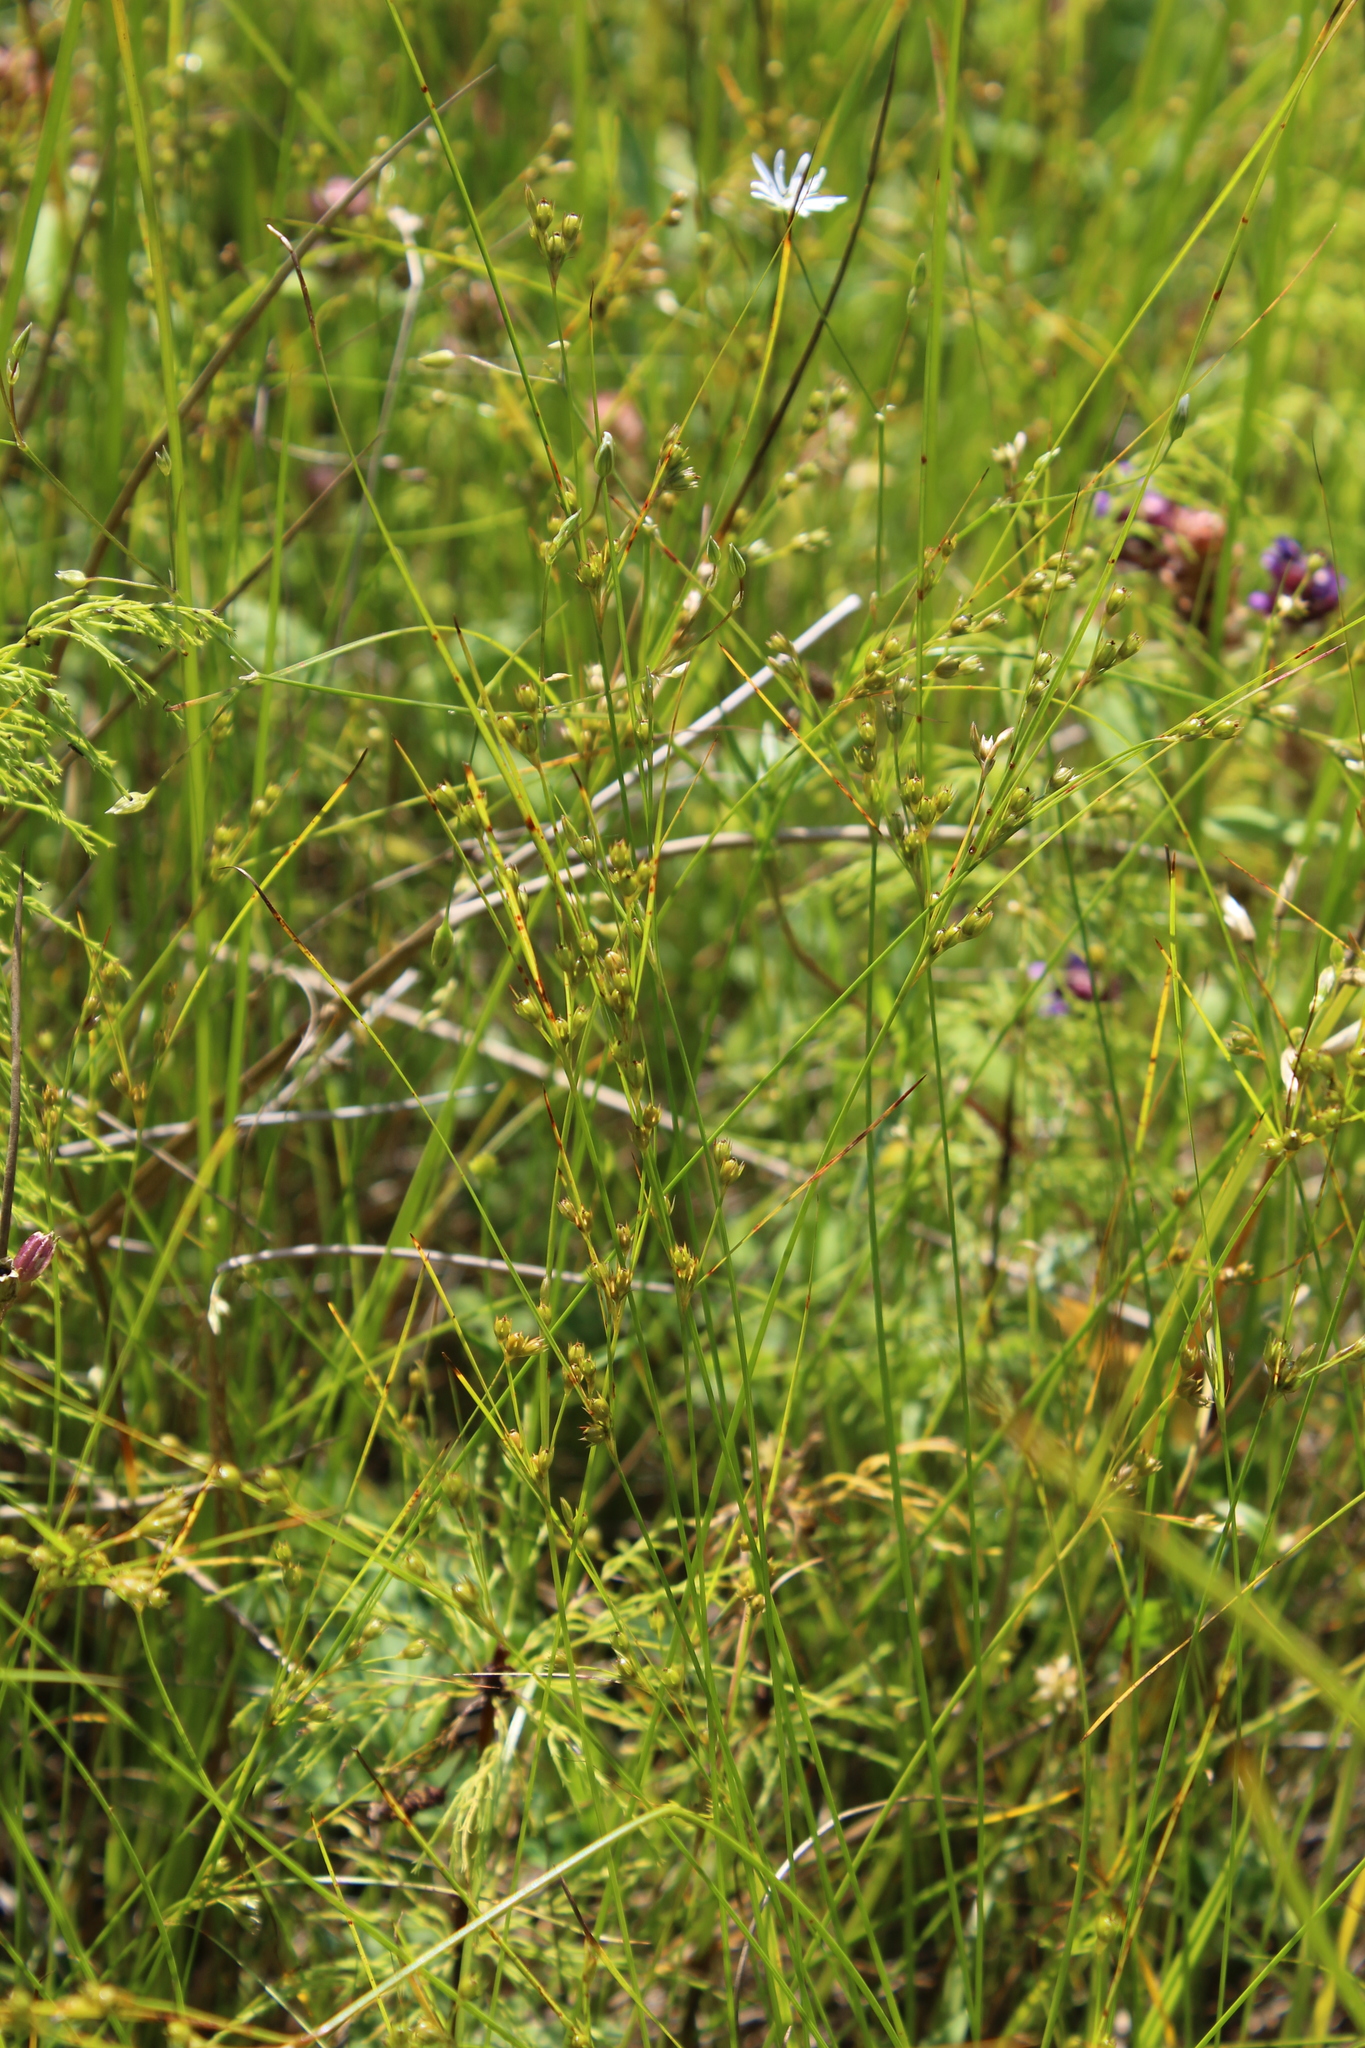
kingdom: Plantae
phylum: Tracheophyta
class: Liliopsida
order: Poales
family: Juncaceae
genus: Juncus
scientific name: Juncus tenuis
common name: Slender rush
